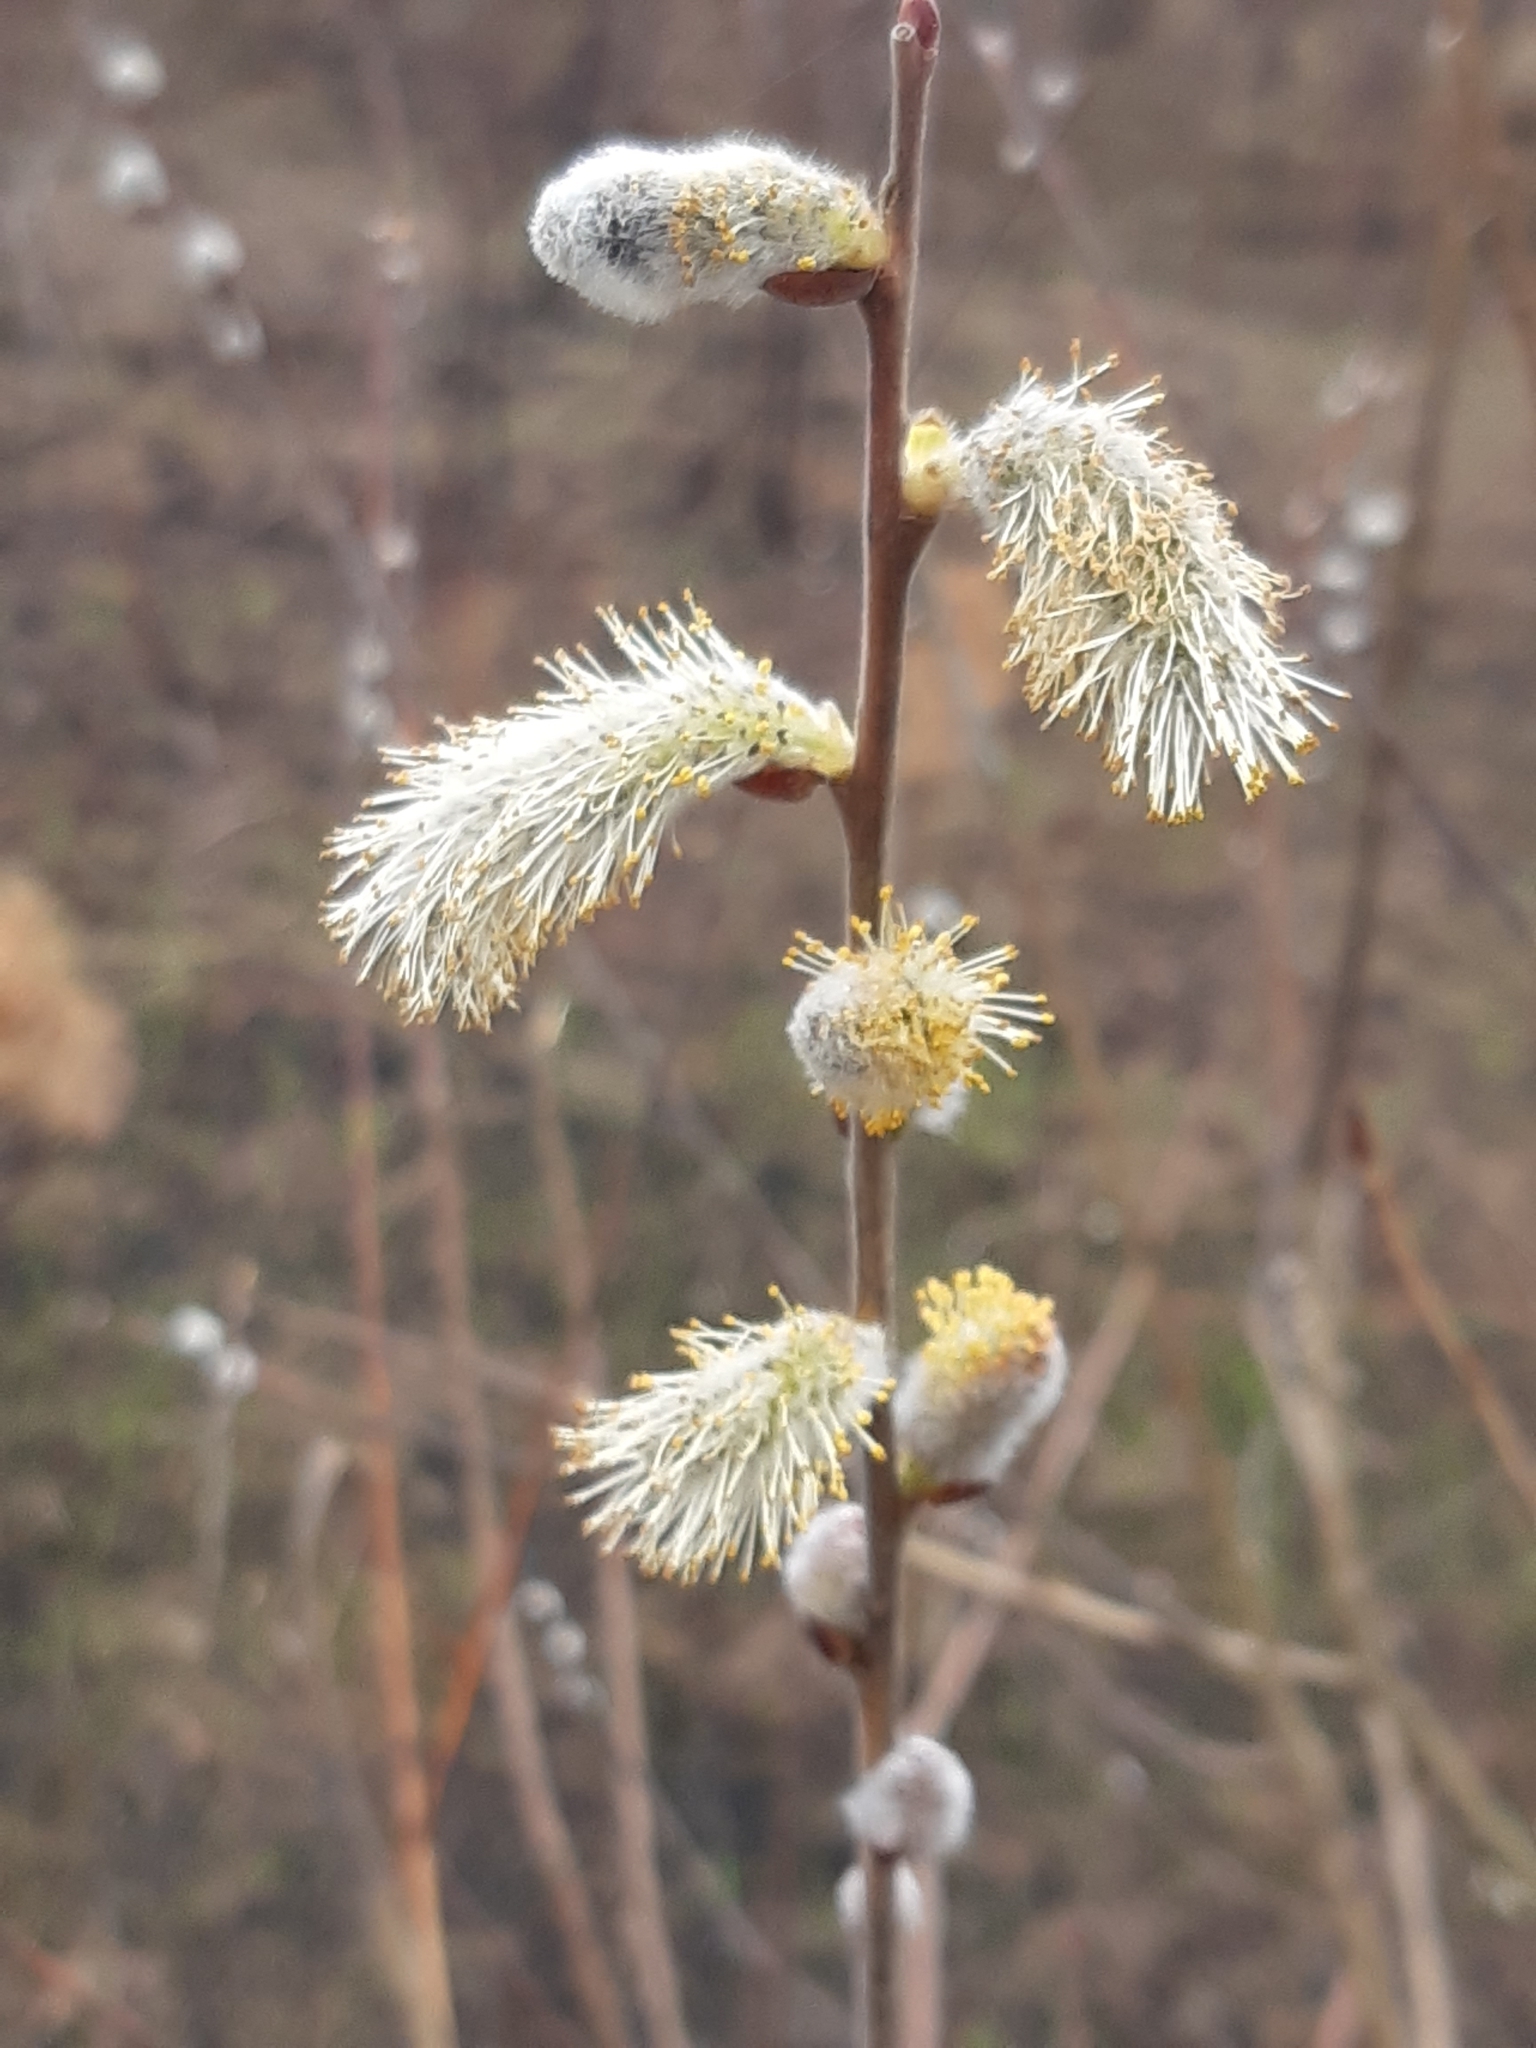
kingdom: Plantae
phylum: Tracheophyta
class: Magnoliopsida
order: Malpighiales
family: Salicaceae
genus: Salix
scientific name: Salix caprea
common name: Goat willow
